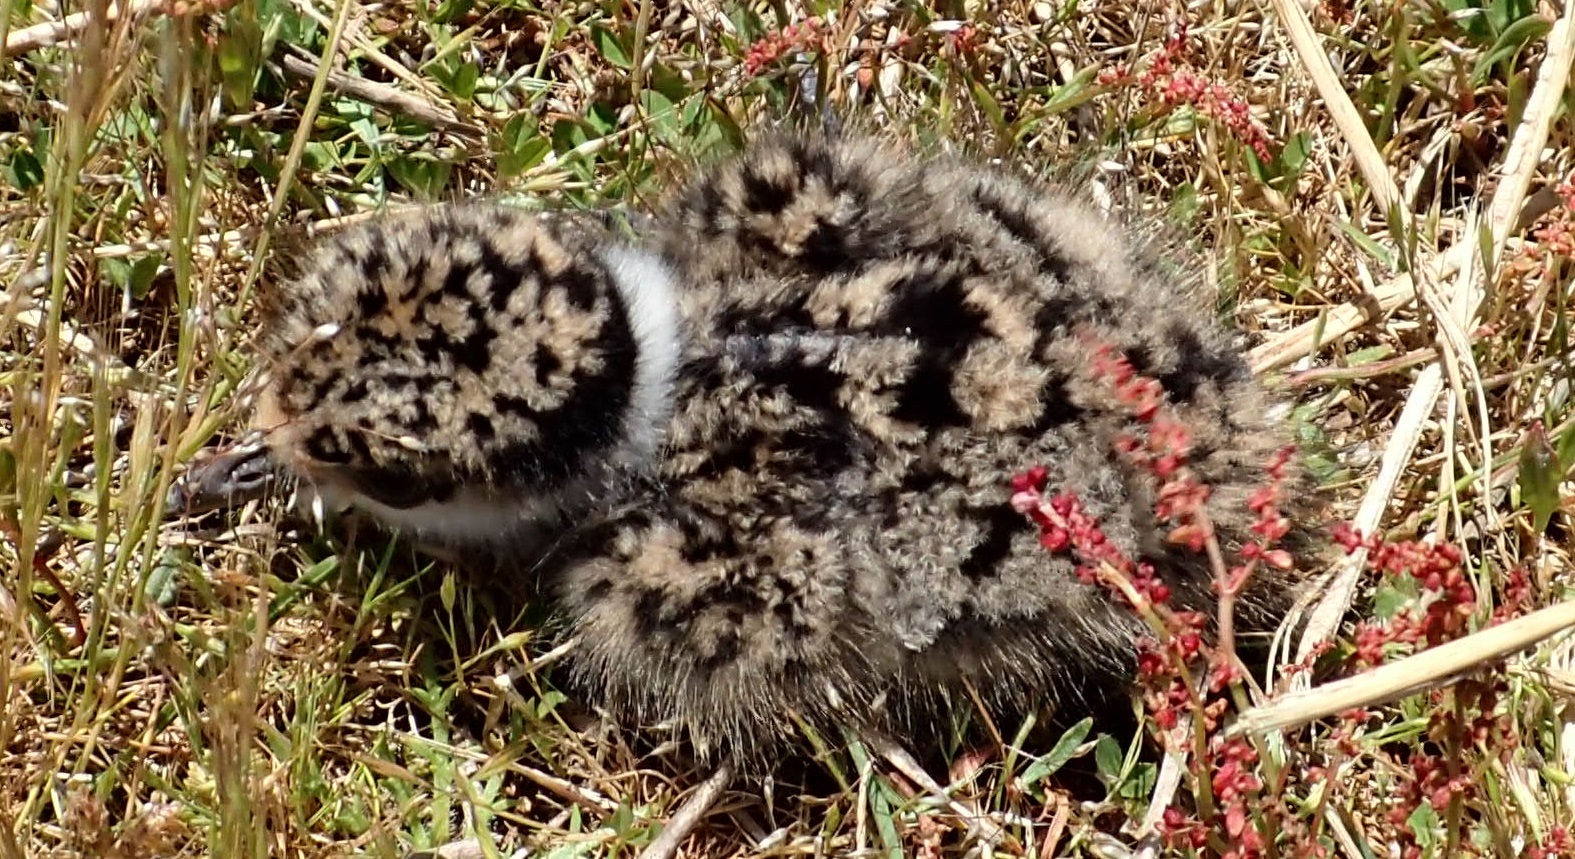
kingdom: Animalia
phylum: Chordata
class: Aves
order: Charadriiformes
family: Charadriidae
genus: Vanellus
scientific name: Vanellus miles
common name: Masked lapwing
